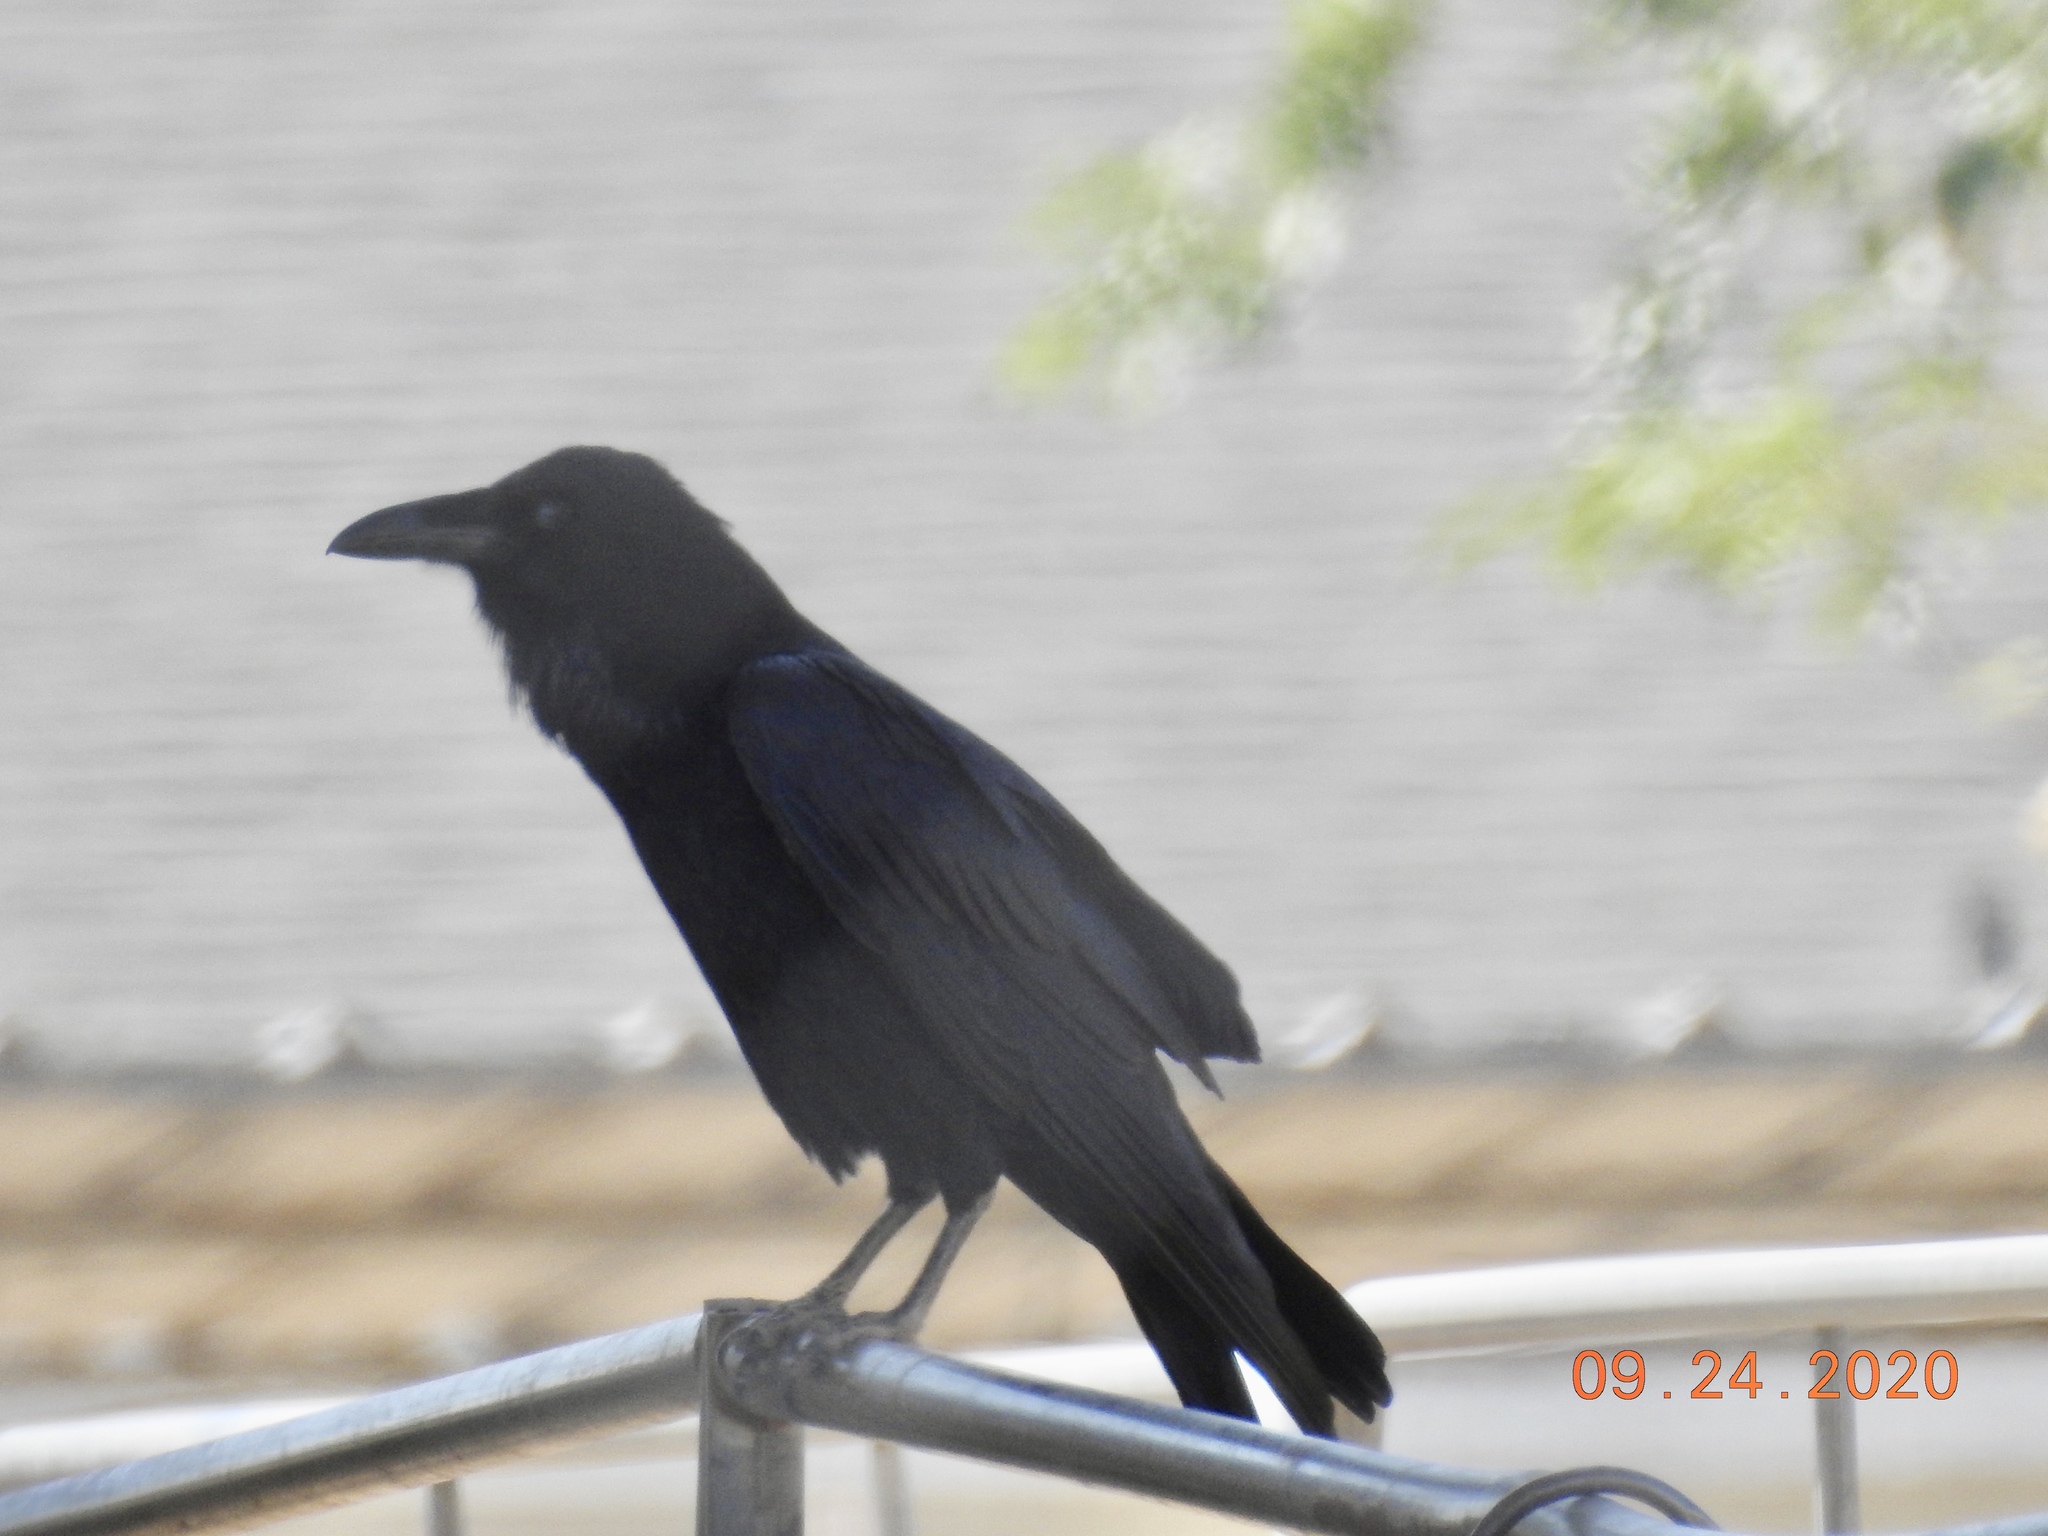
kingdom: Animalia
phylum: Chordata
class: Aves
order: Passeriformes
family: Corvidae
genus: Corvus
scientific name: Corvus corax
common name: Common raven
